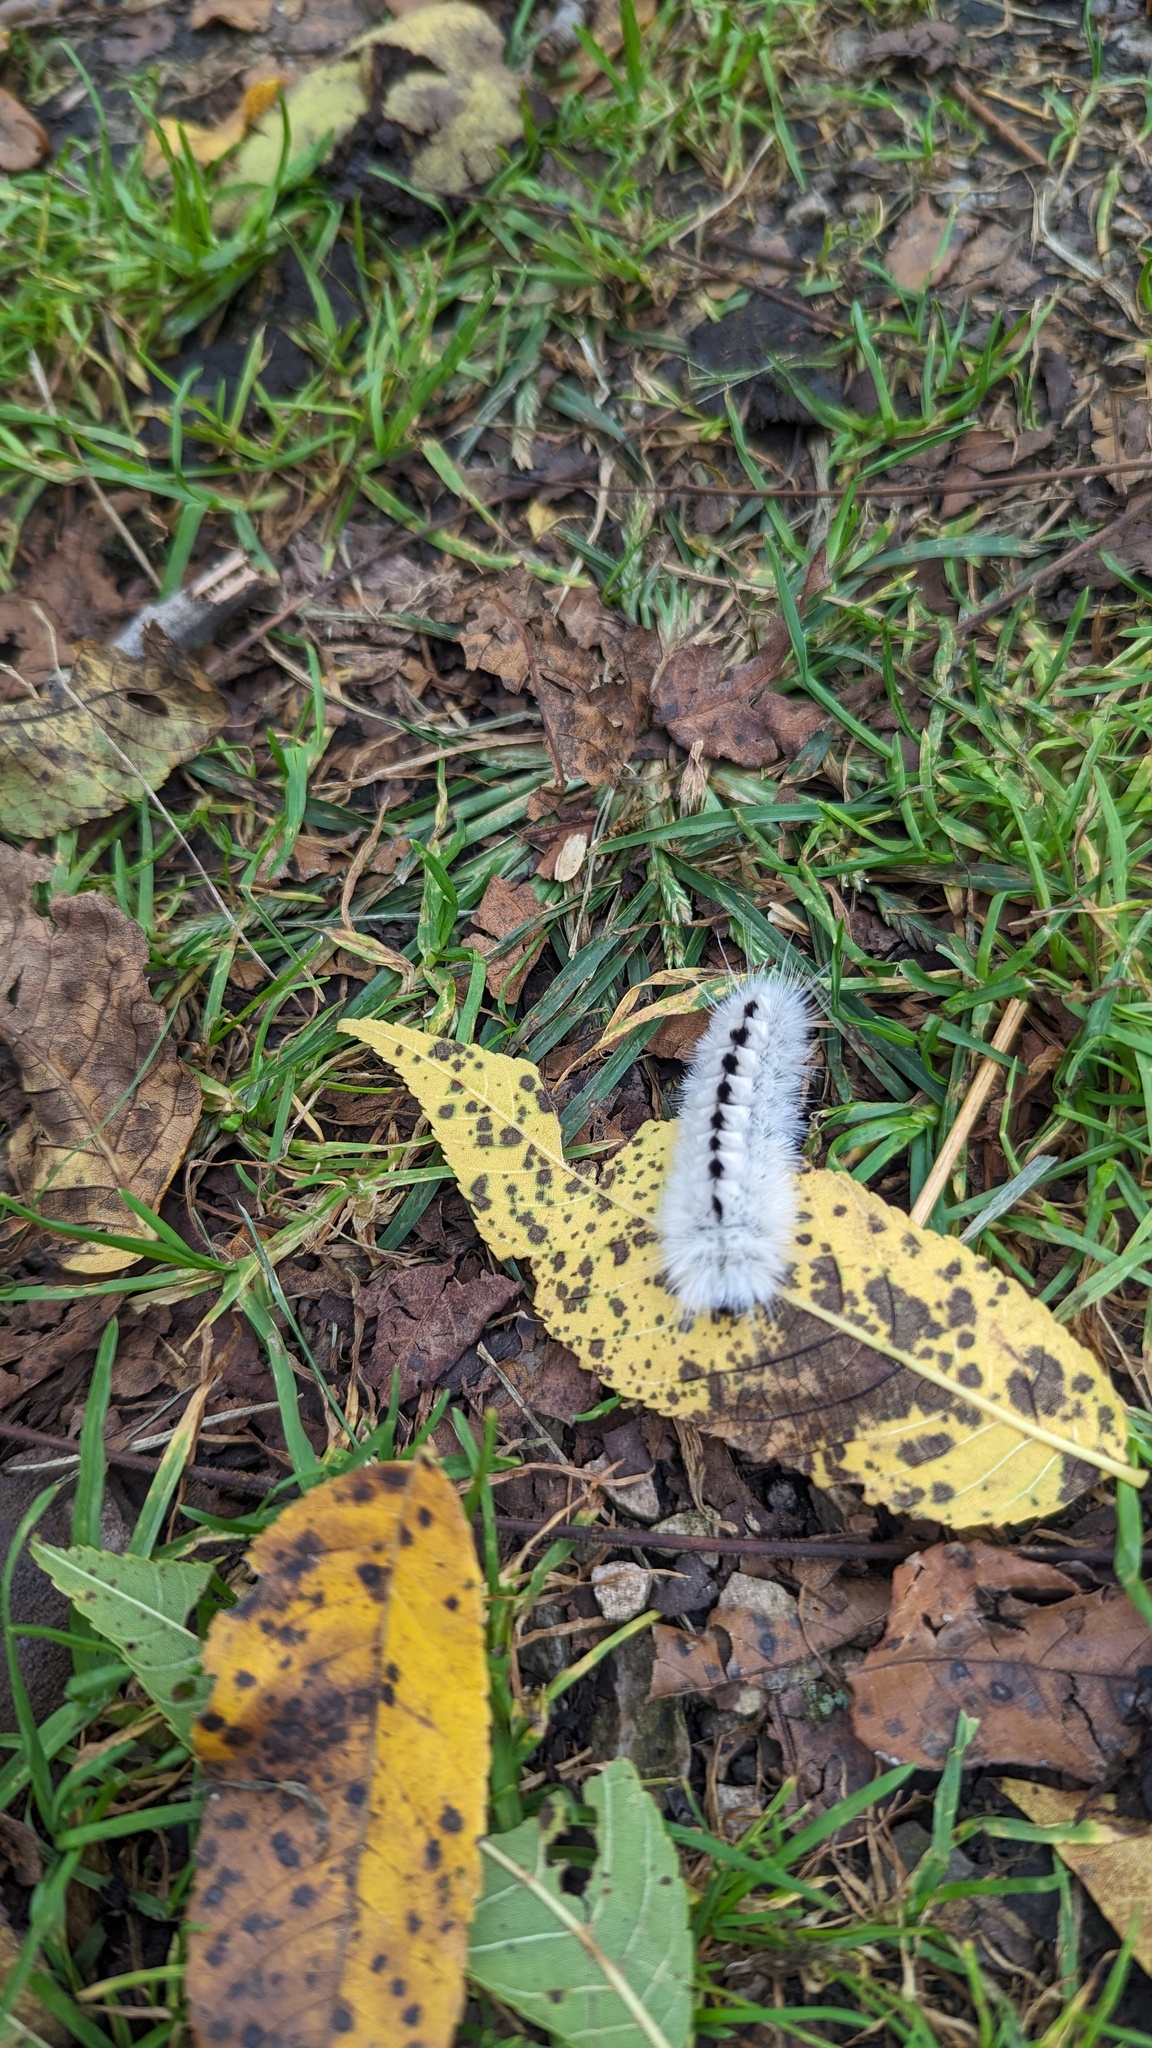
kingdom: Animalia
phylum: Arthropoda
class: Insecta
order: Lepidoptera
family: Erebidae
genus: Lophocampa
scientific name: Lophocampa caryae
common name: Hickory tussock moth
